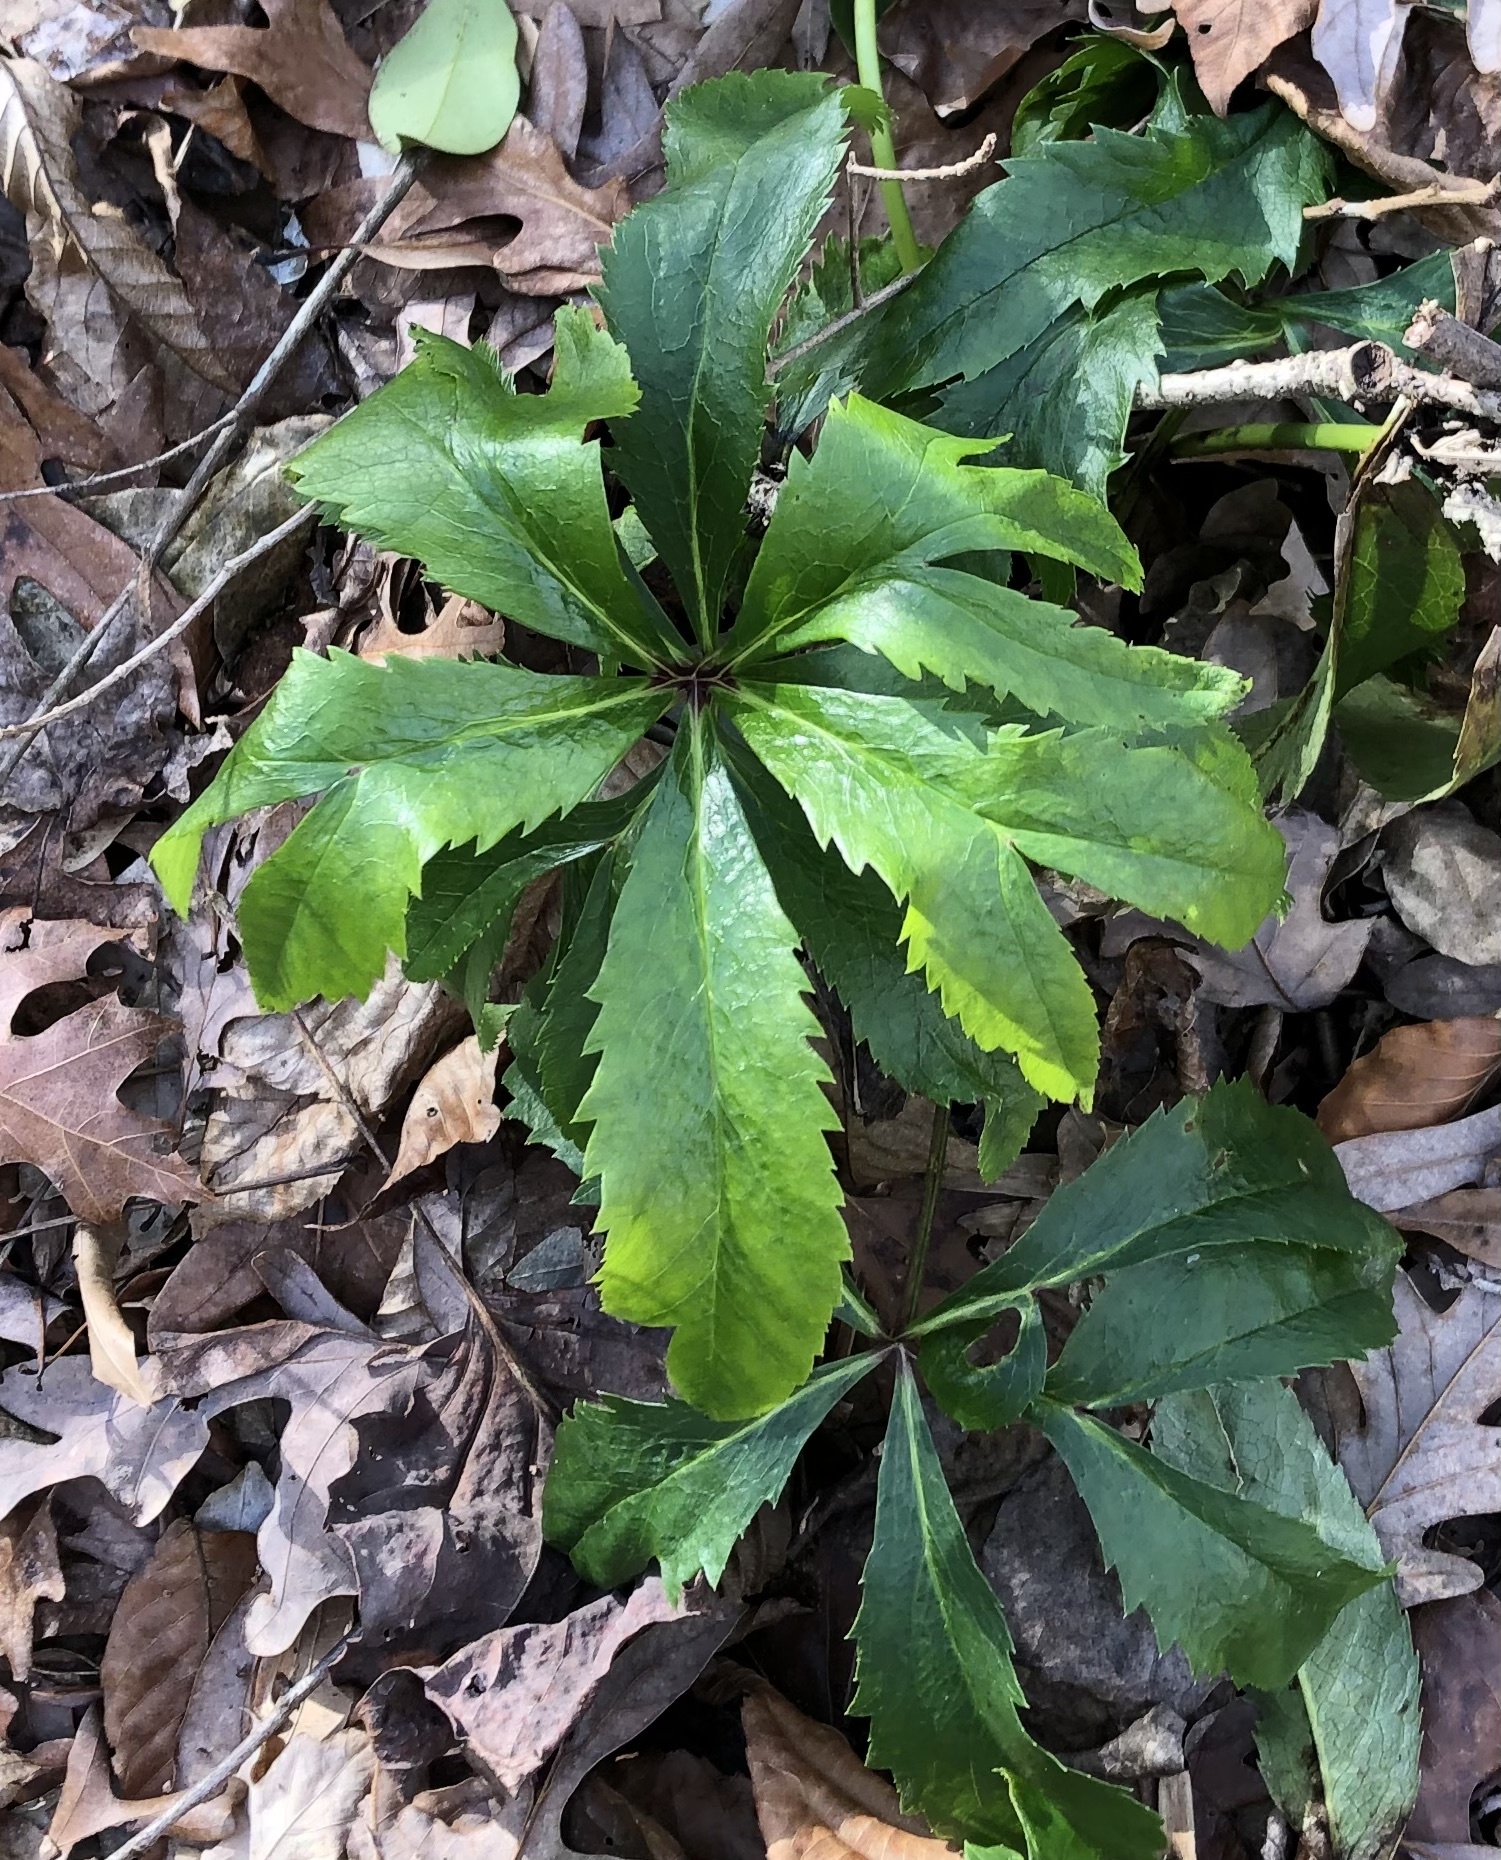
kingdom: Plantae
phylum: Tracheophyta
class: Magnoliopsida
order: Ranunculales
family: Ranunculaceae
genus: Helleborus
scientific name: Helleborus orientalis
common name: Lenten-rose
